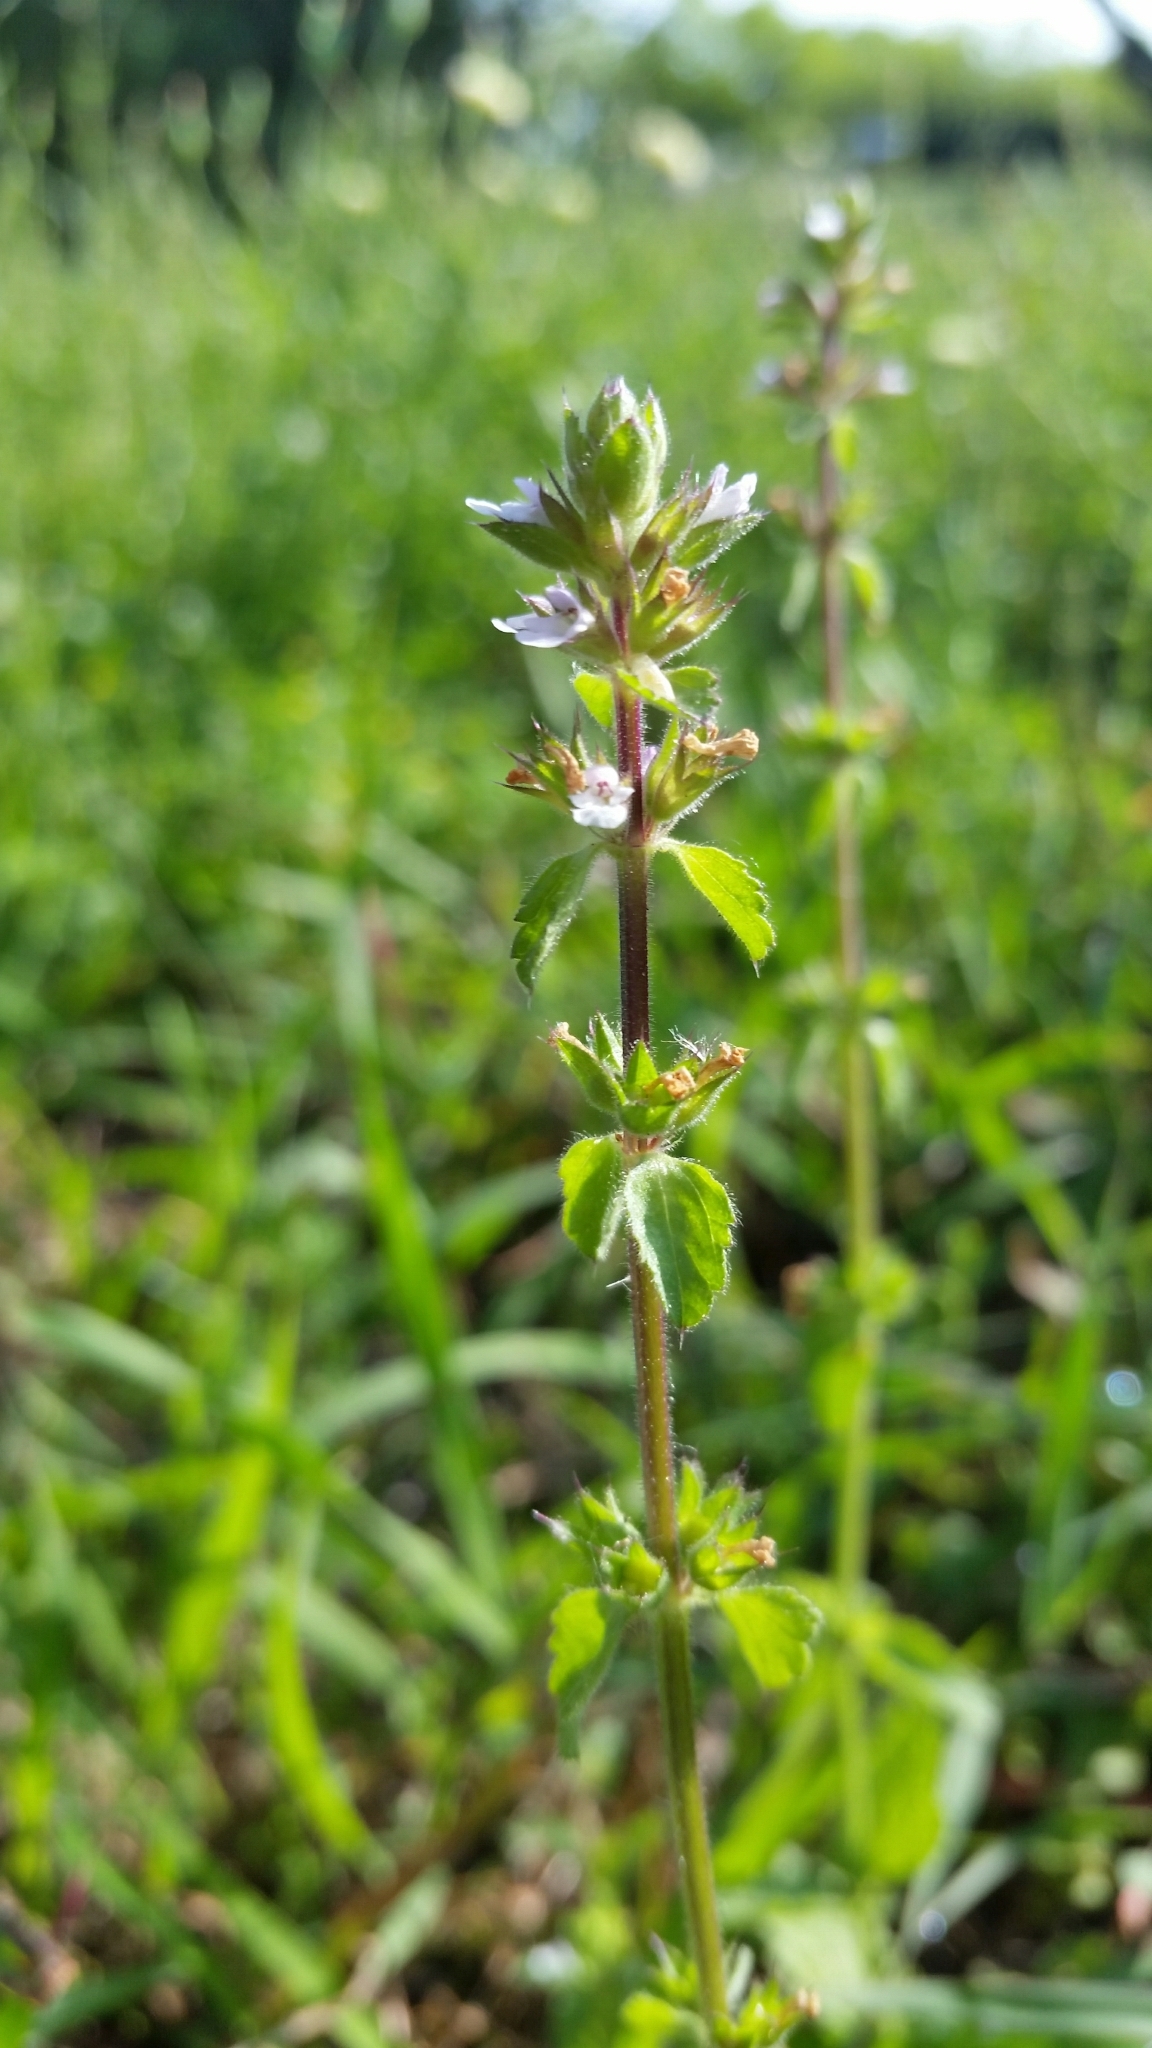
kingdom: Plantae
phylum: Tracheophyta
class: Magnoliopsida
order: Lamiales
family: Lamiaceae
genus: Stachys
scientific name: Stachys
